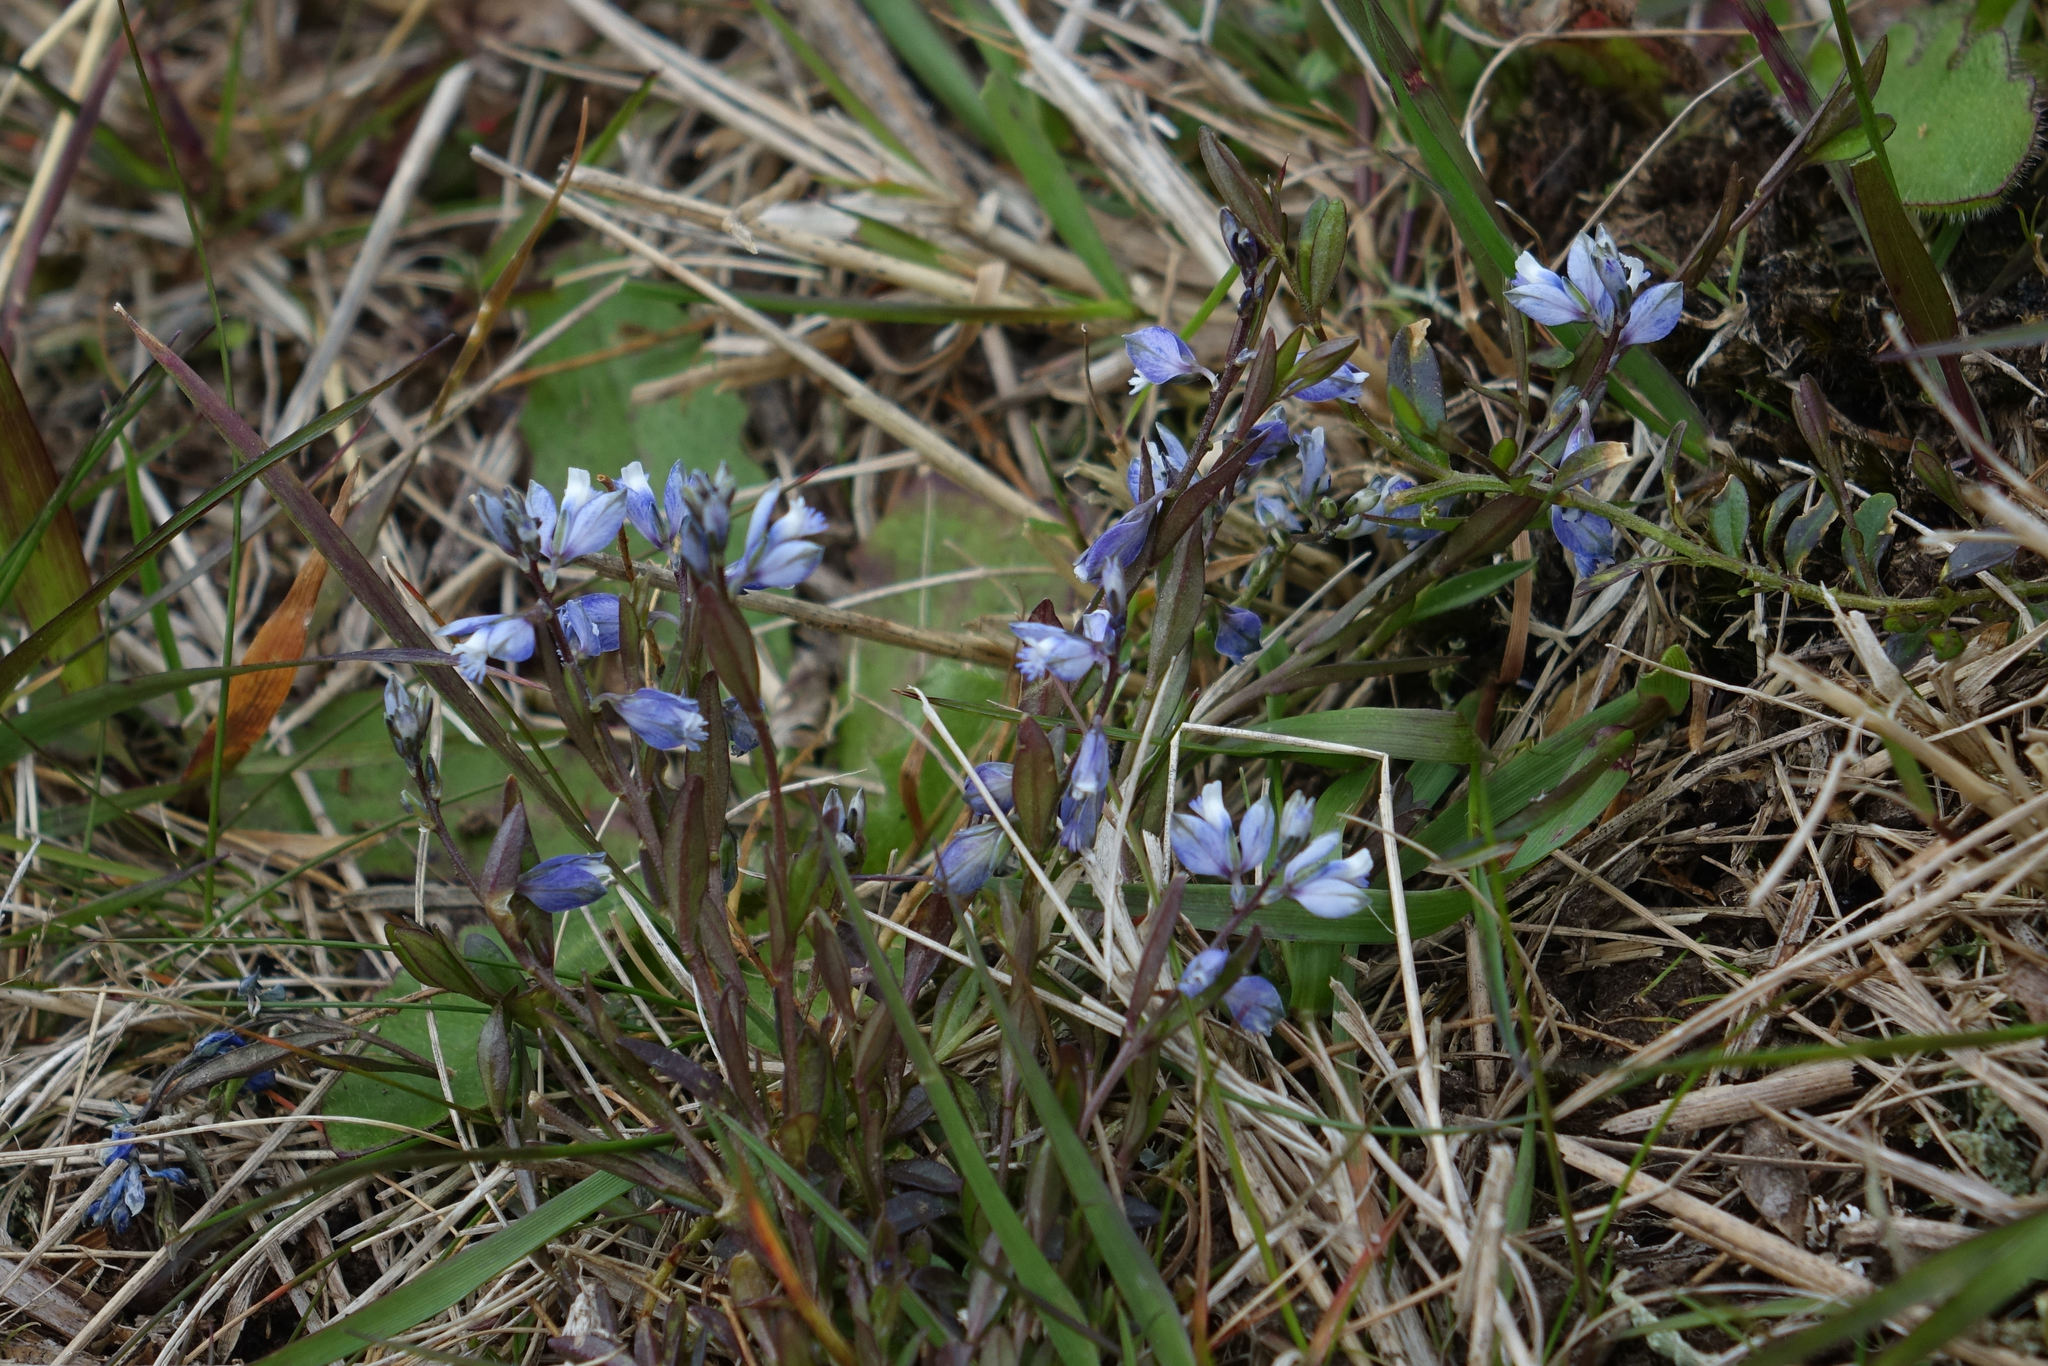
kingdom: Plantae
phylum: Tracheophyta
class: Magnoliopsida
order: Fabales
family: Polygalaceae
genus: Polygala
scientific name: Polygala serpyllifolia
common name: Heath milkwort
